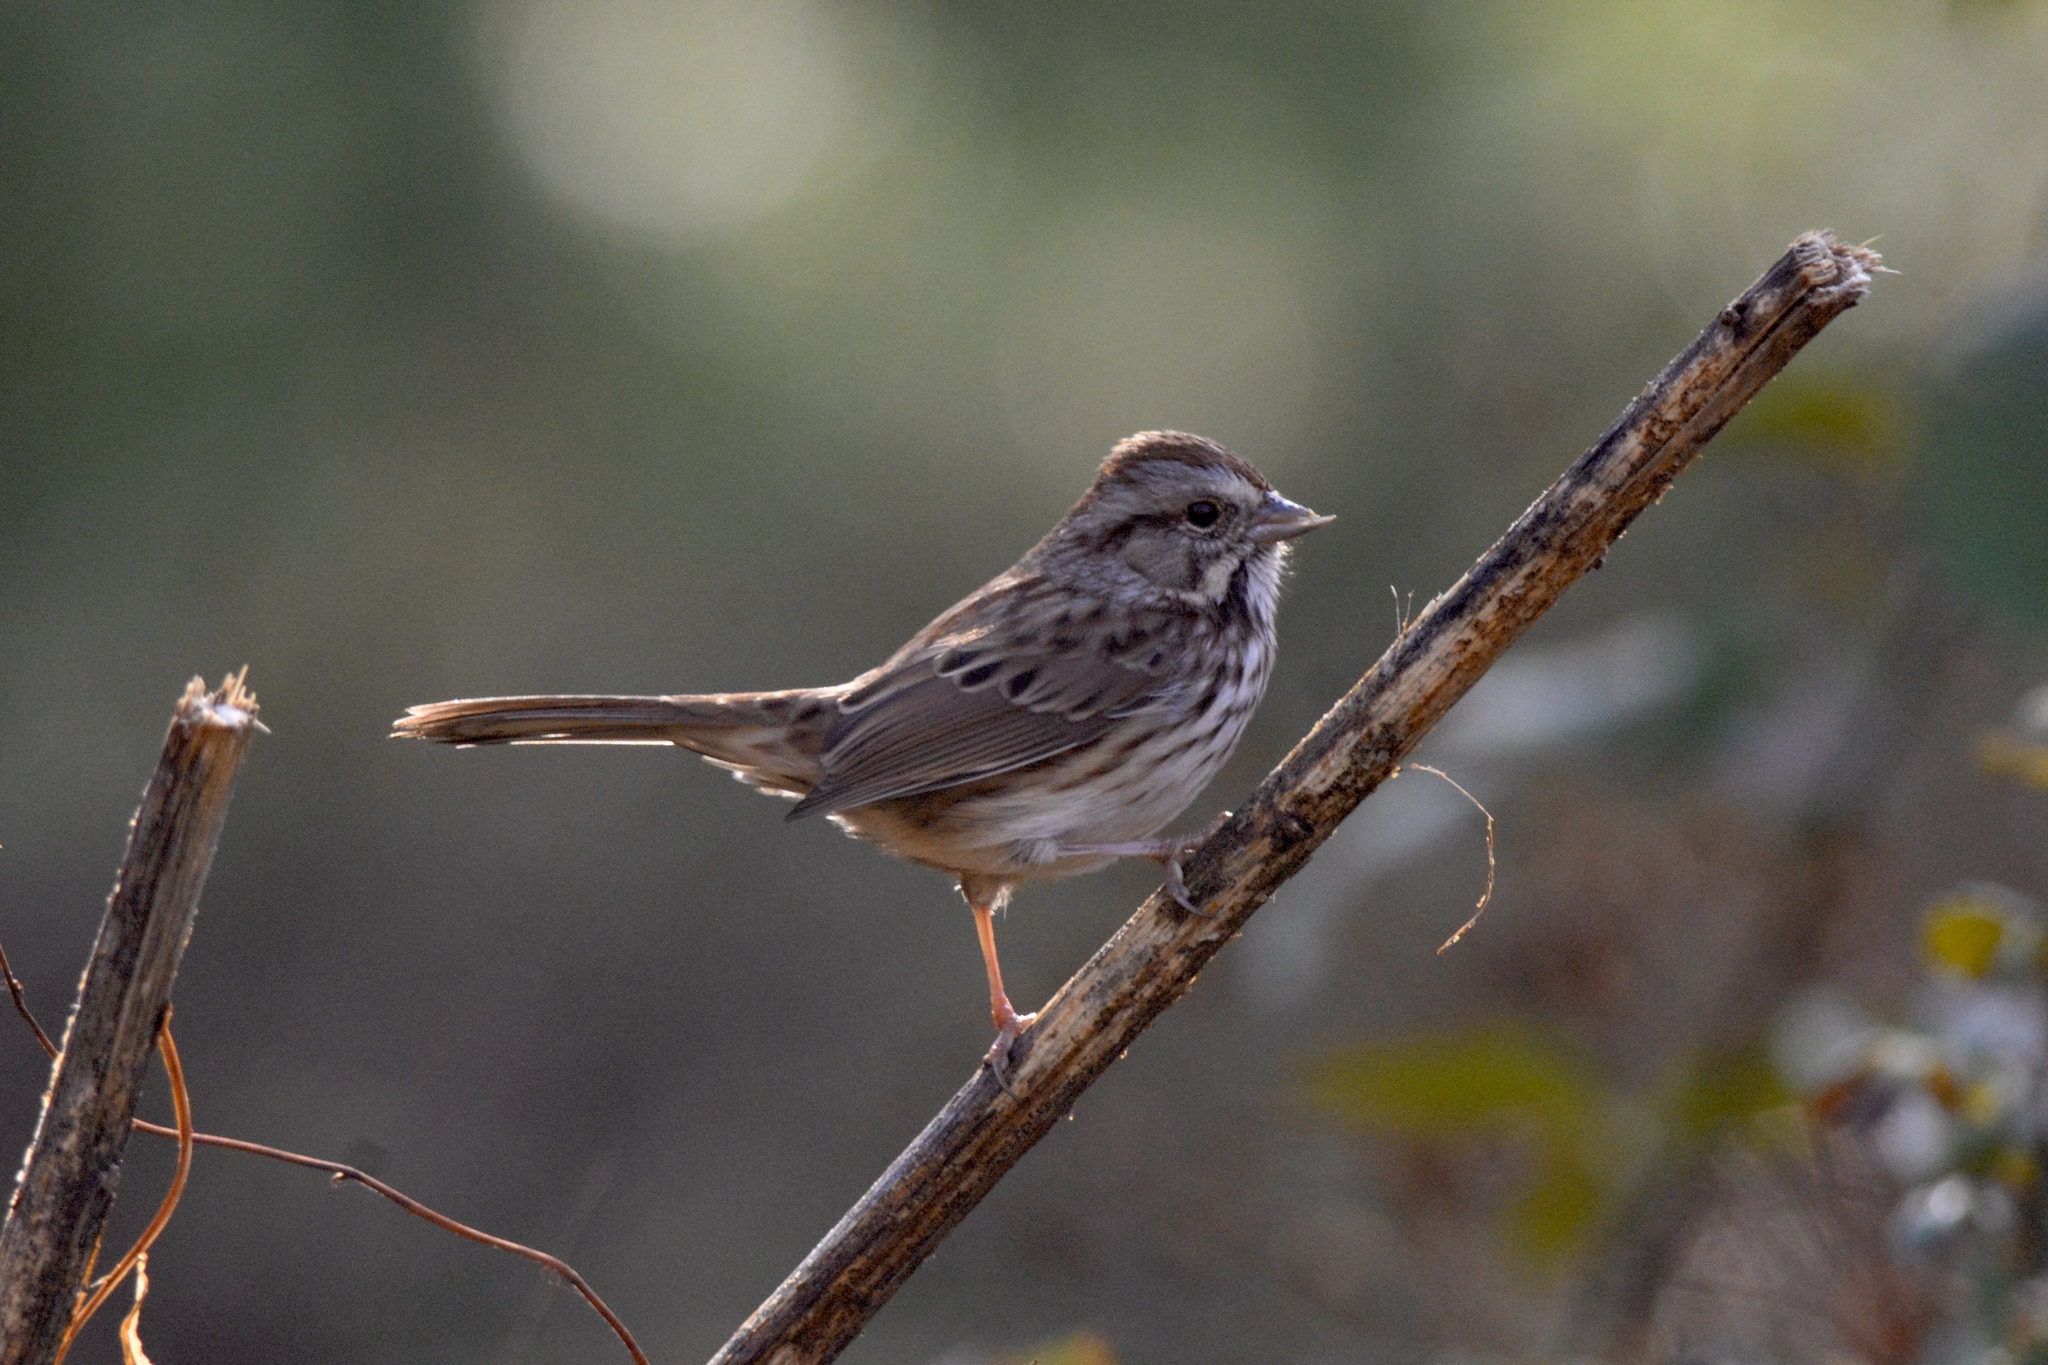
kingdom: Animalia
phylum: Chordata
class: Aves
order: Passeriformes
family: Passerellidae
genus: Melospiza
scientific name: Melospiza melodia
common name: Song sparrow
